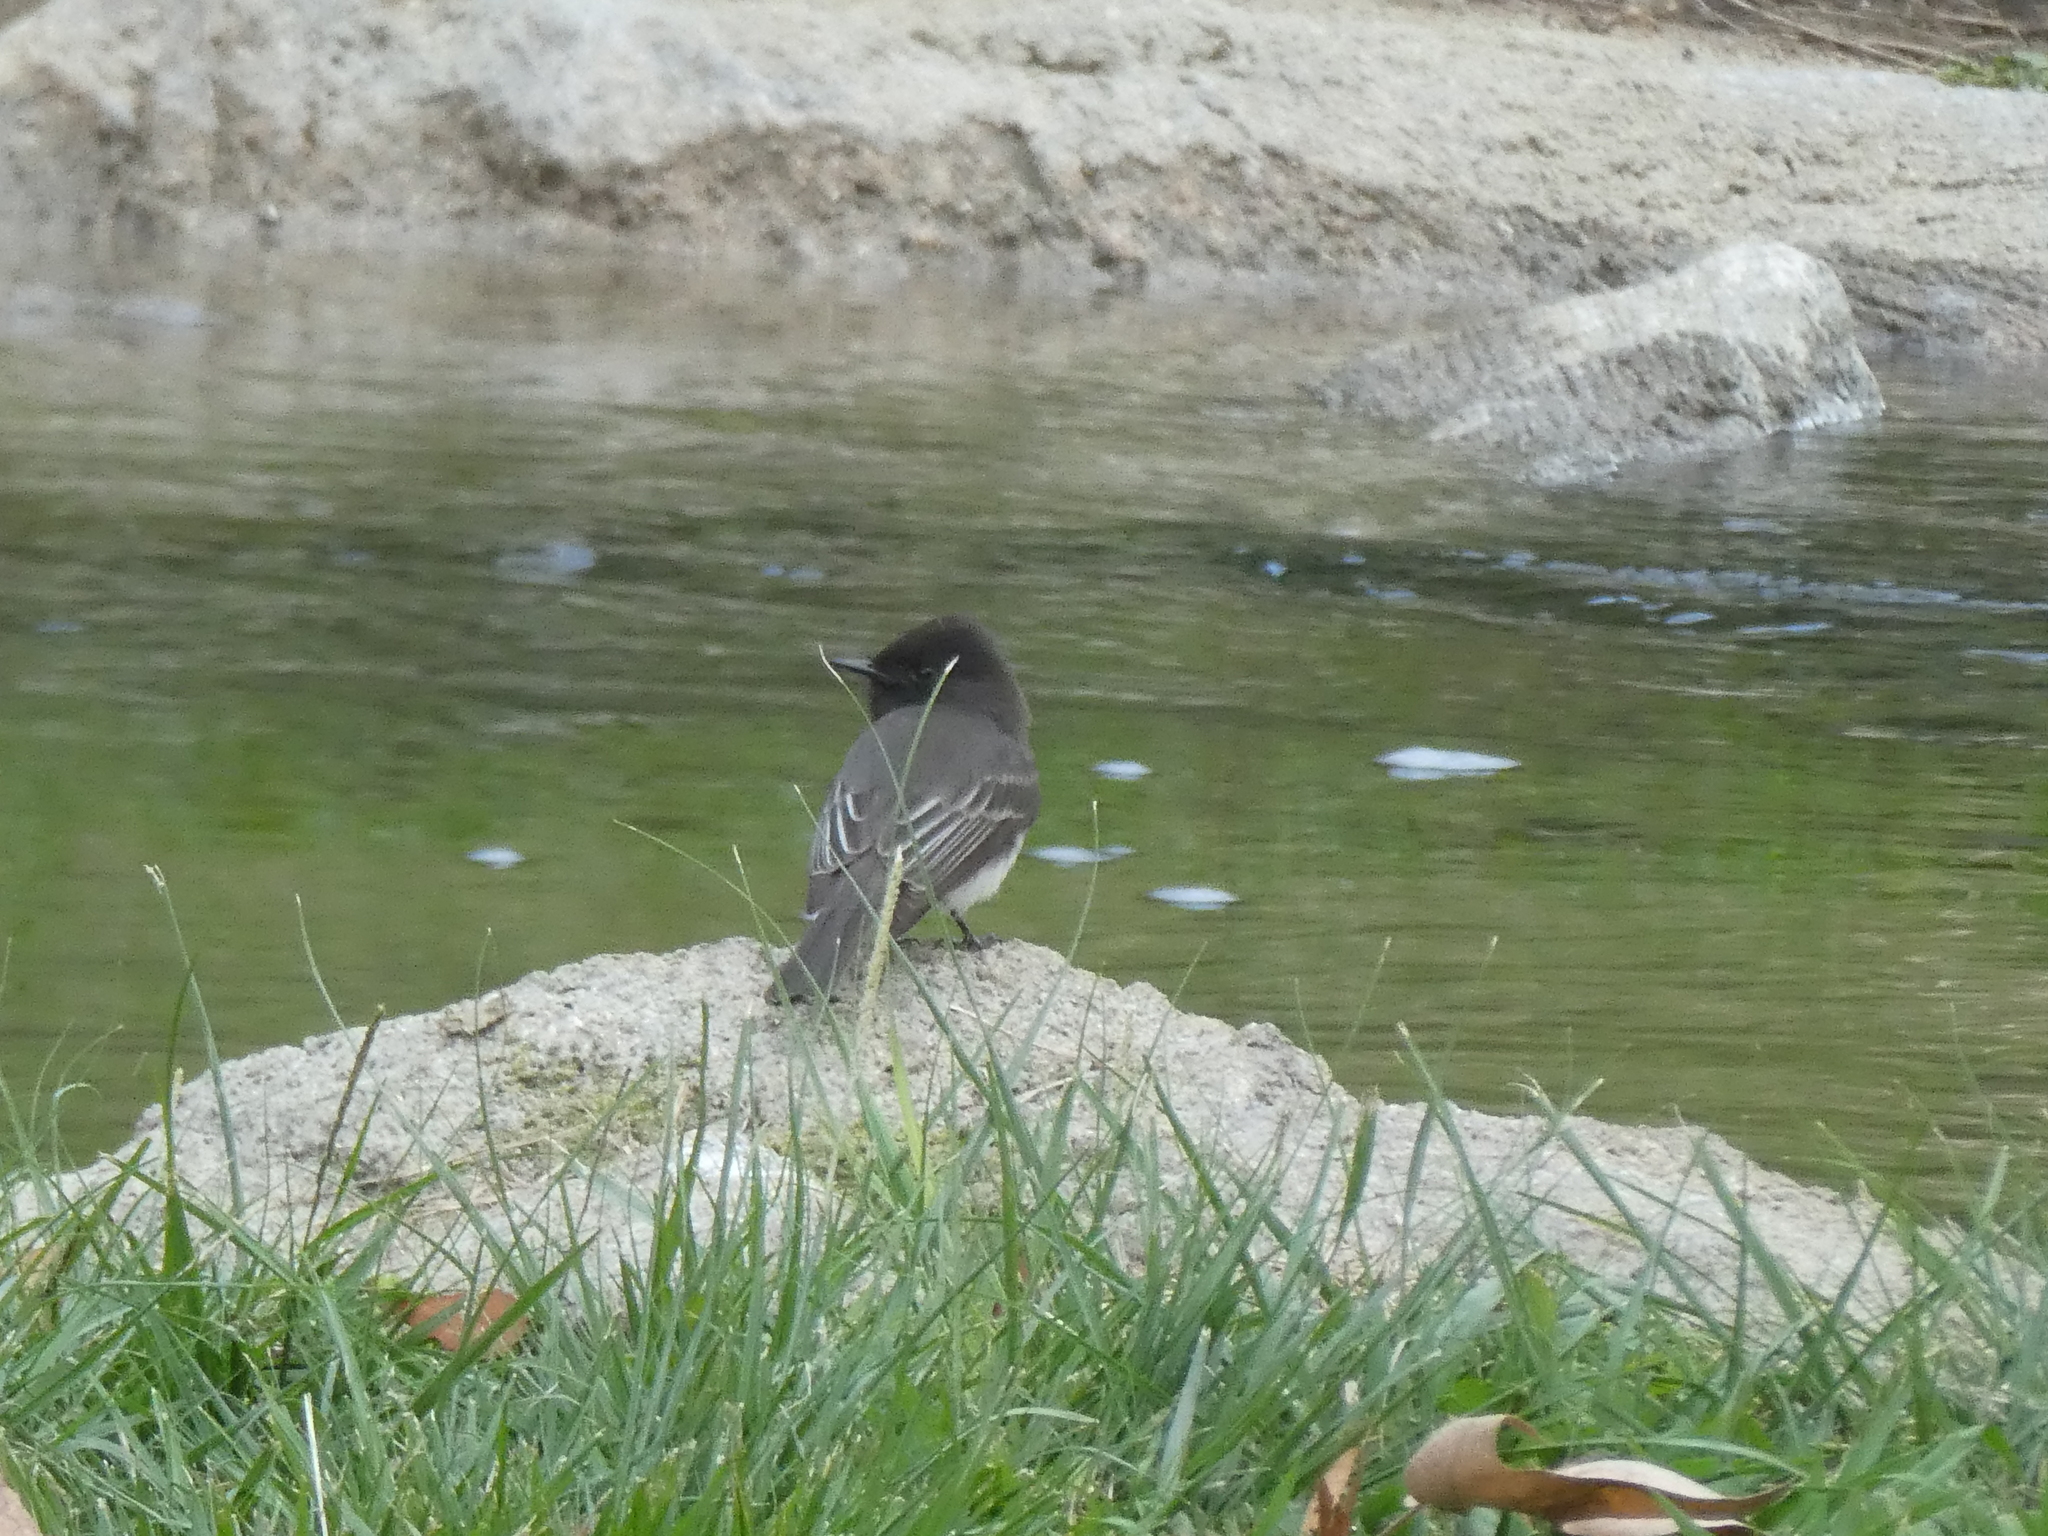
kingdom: Animalia
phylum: Chordata
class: Aves
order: Passeriformes
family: Tyrannidae
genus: Sayornis
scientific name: Sayornis nigricans
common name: Black phoebe
